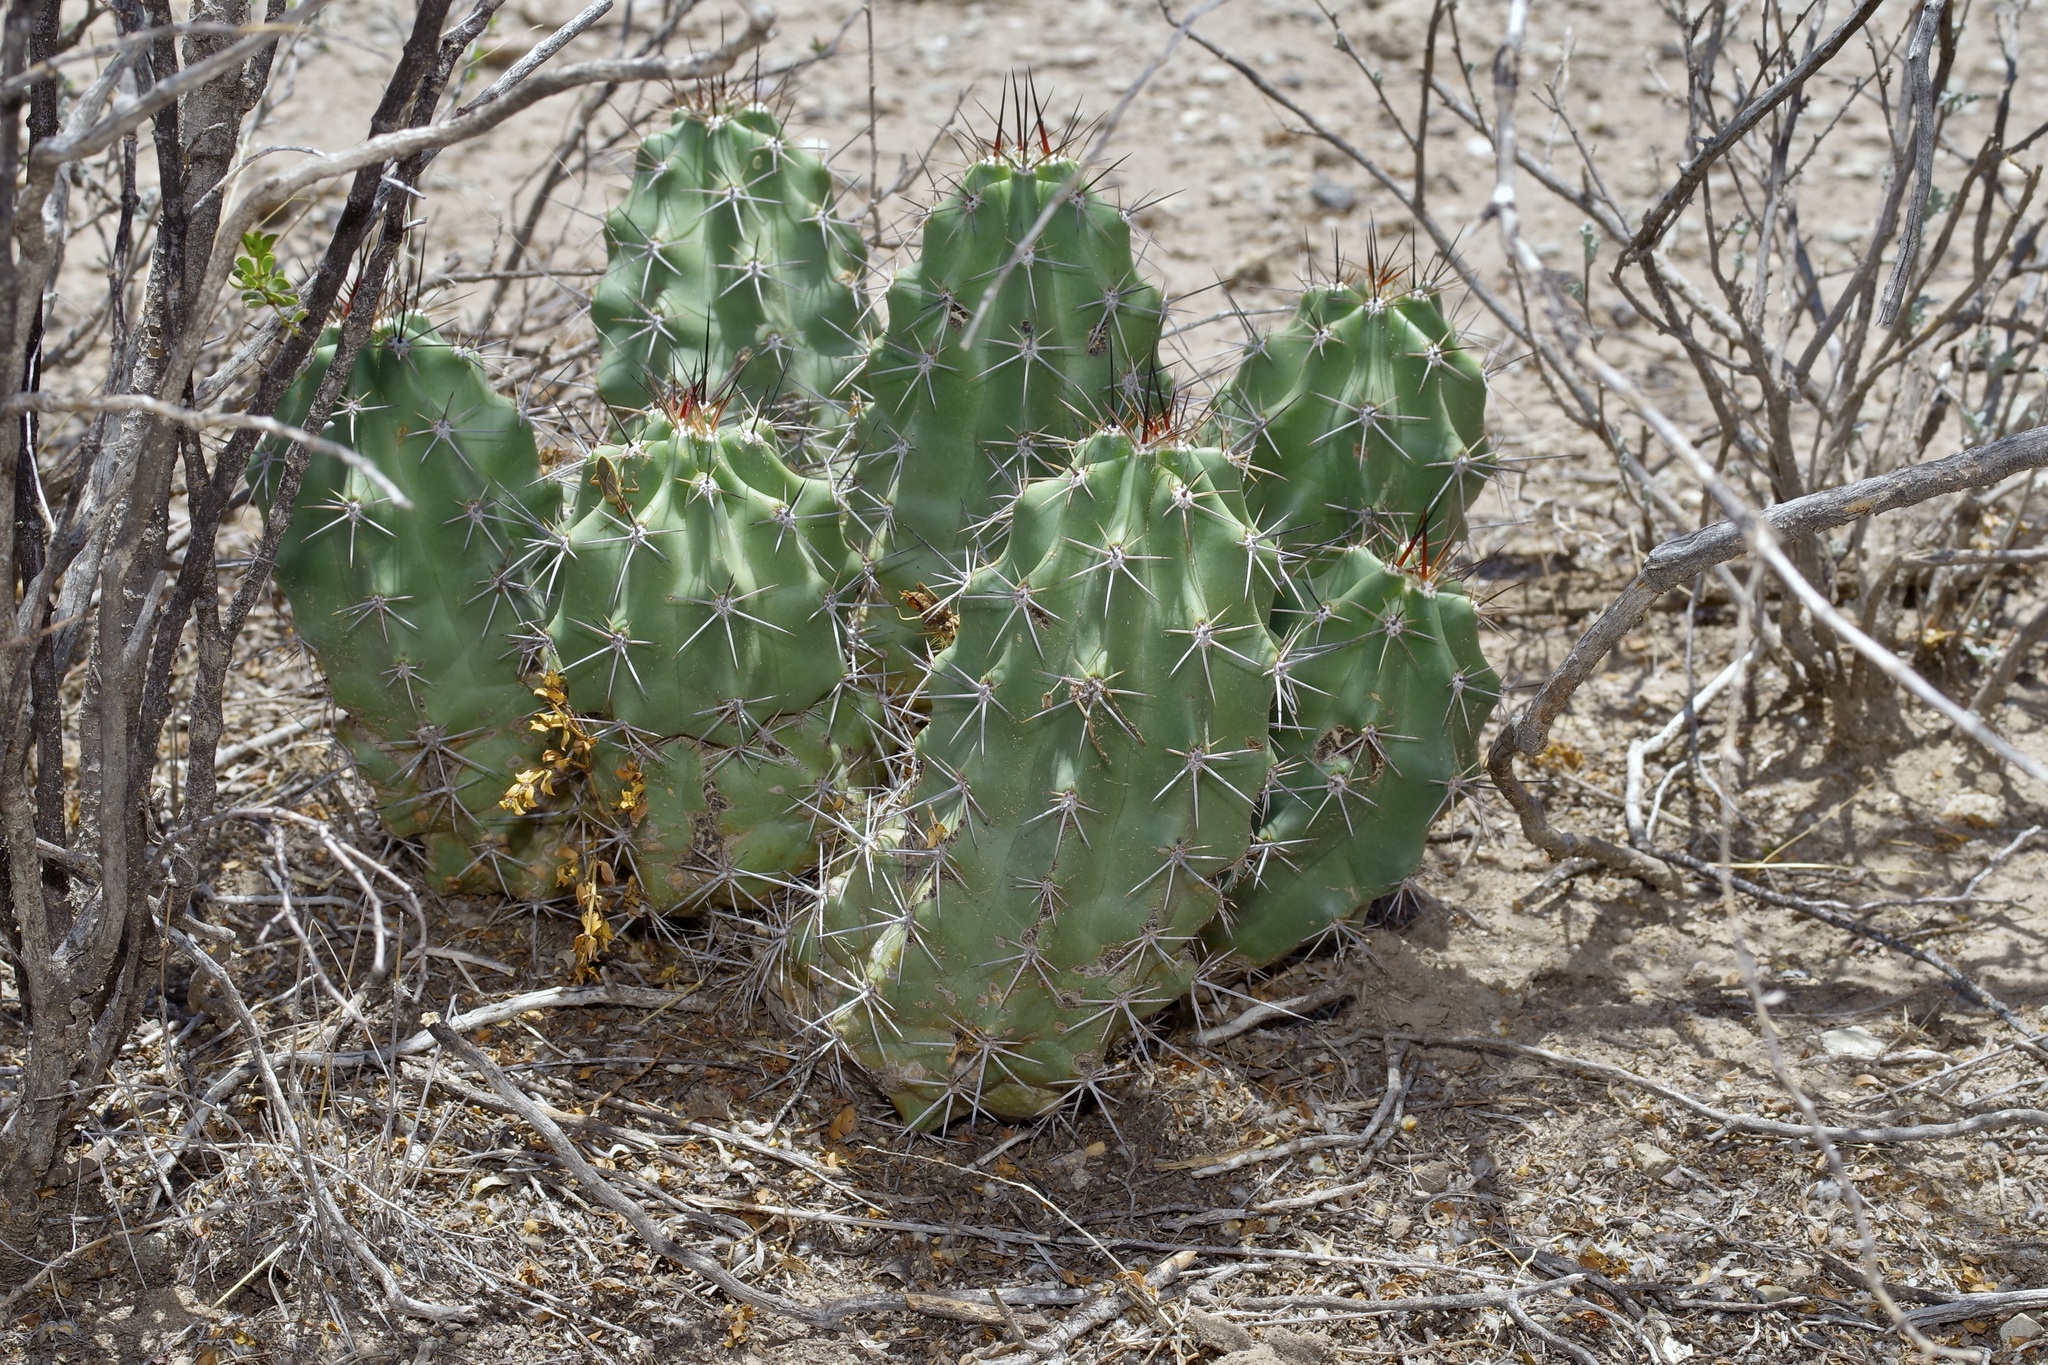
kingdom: Plantae
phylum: Tracheophyta
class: Magnoliopsida
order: Caryophyllales
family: Cactaceae
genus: Echinocereus
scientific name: Echinocereus coccineus
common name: Scarlet hedgehog cactus
